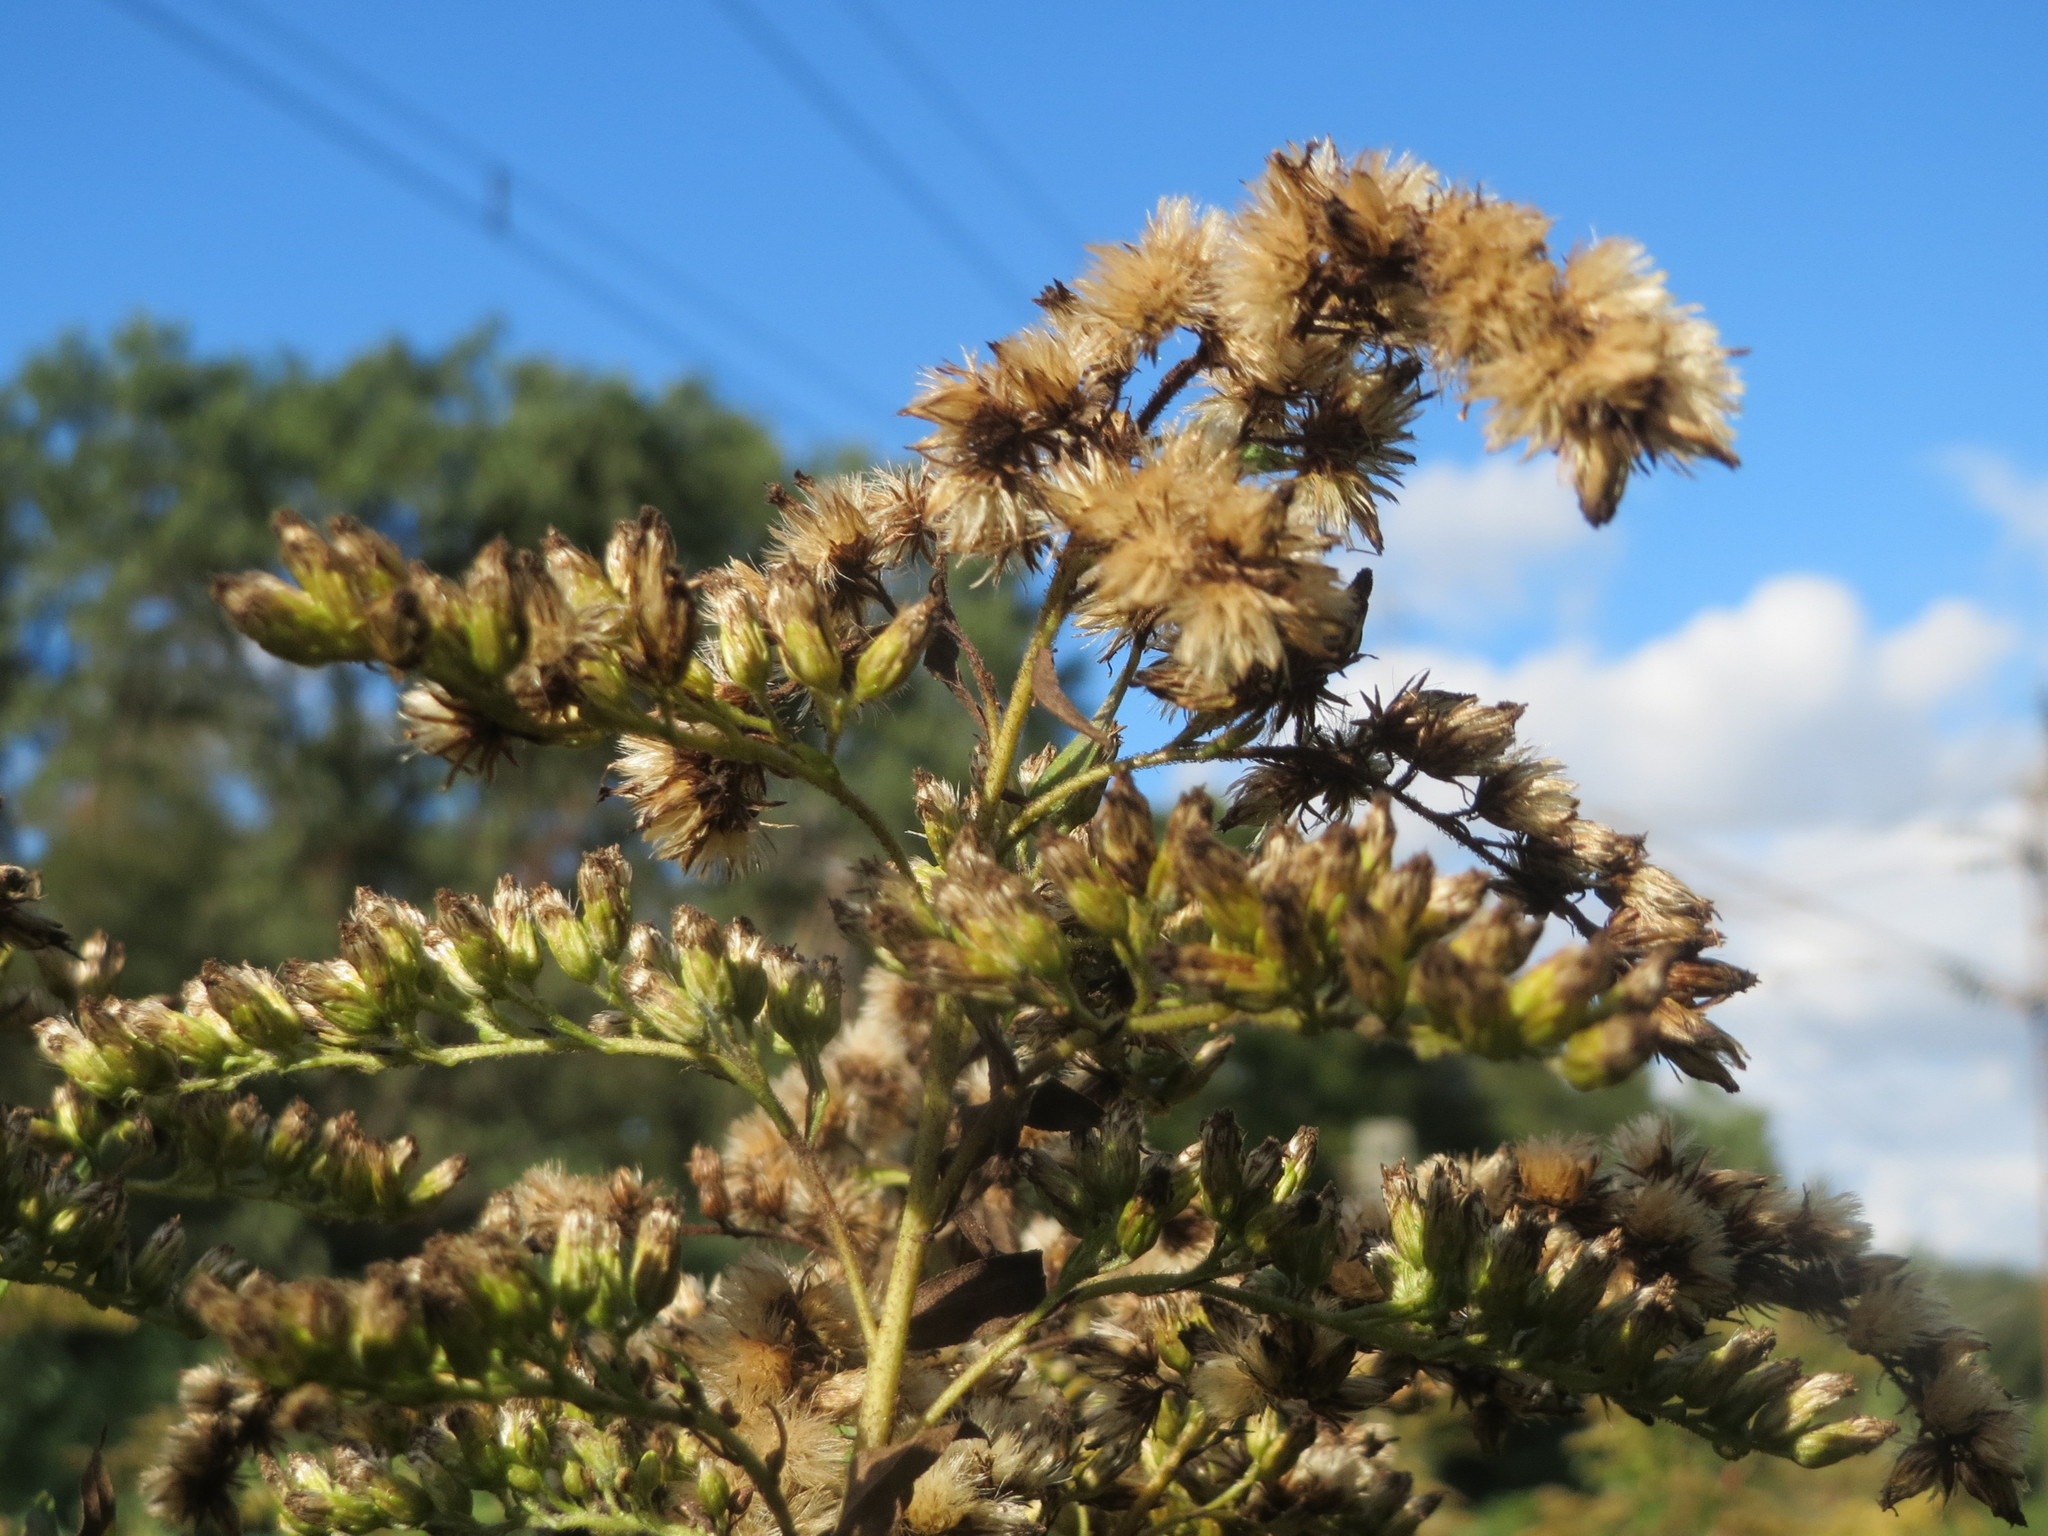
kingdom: Plantae
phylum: Tracheophyta
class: Magnoliopsida
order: Asterales
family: Asteraceae
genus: Solidago
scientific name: Solidago canadensis
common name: Canada goldenrod
